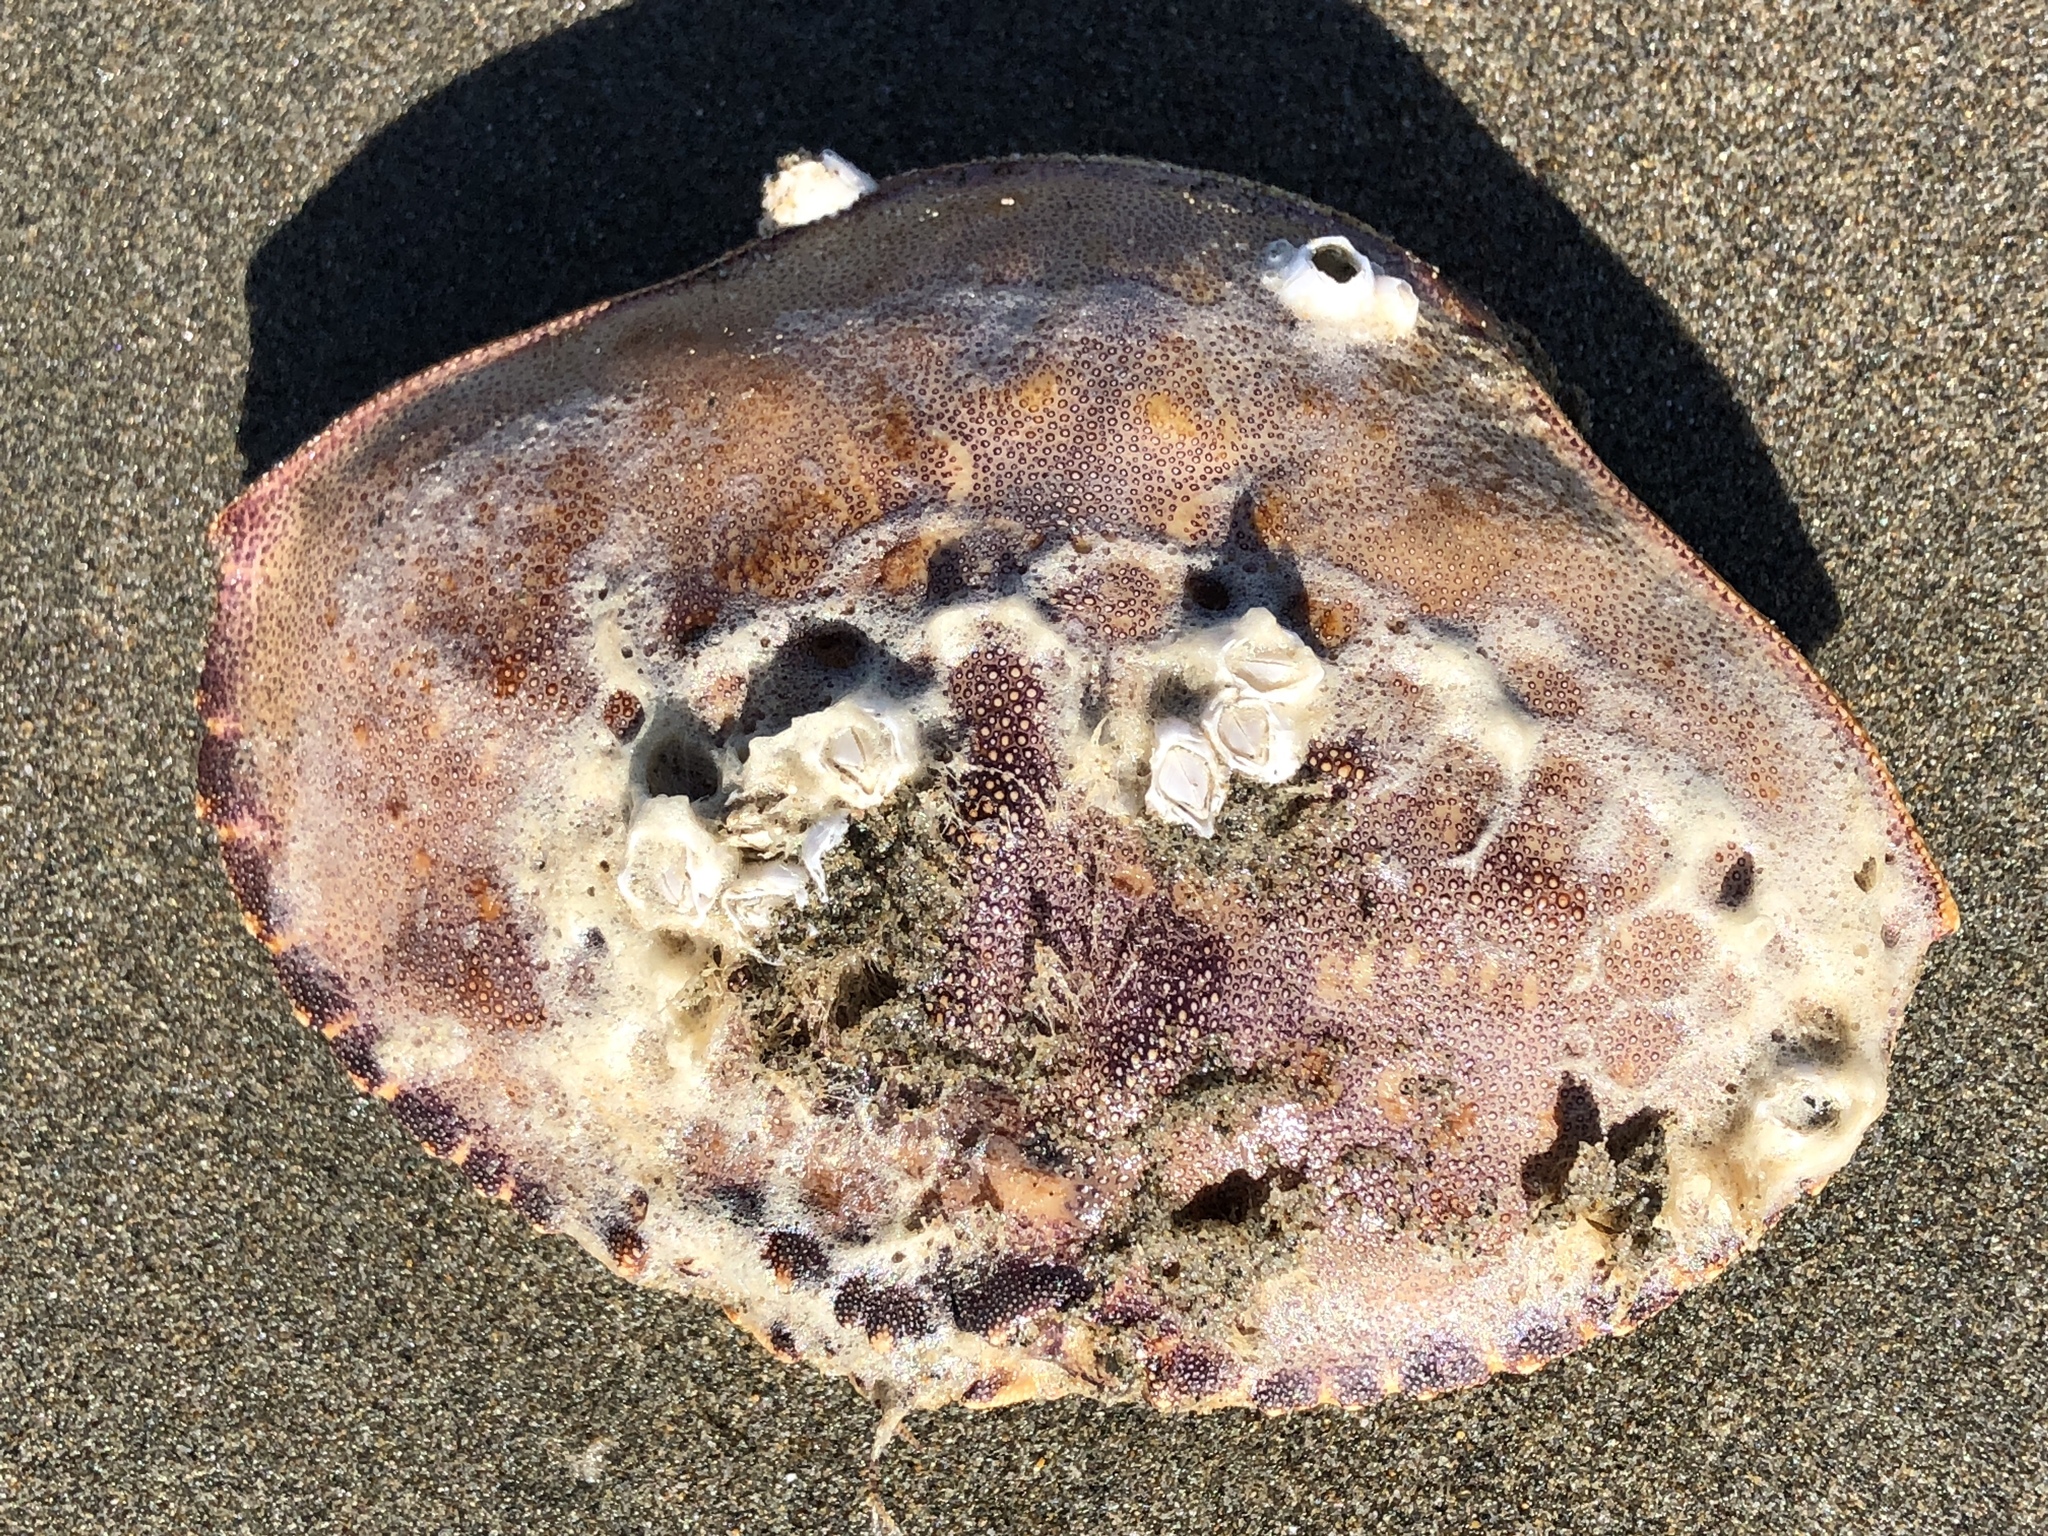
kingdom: Animalia
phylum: Arthropoda
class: Malacostraca
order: Decapoda
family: Cancridae
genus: Metacarcinus
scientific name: Metacarcinus magister
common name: Californian crab
